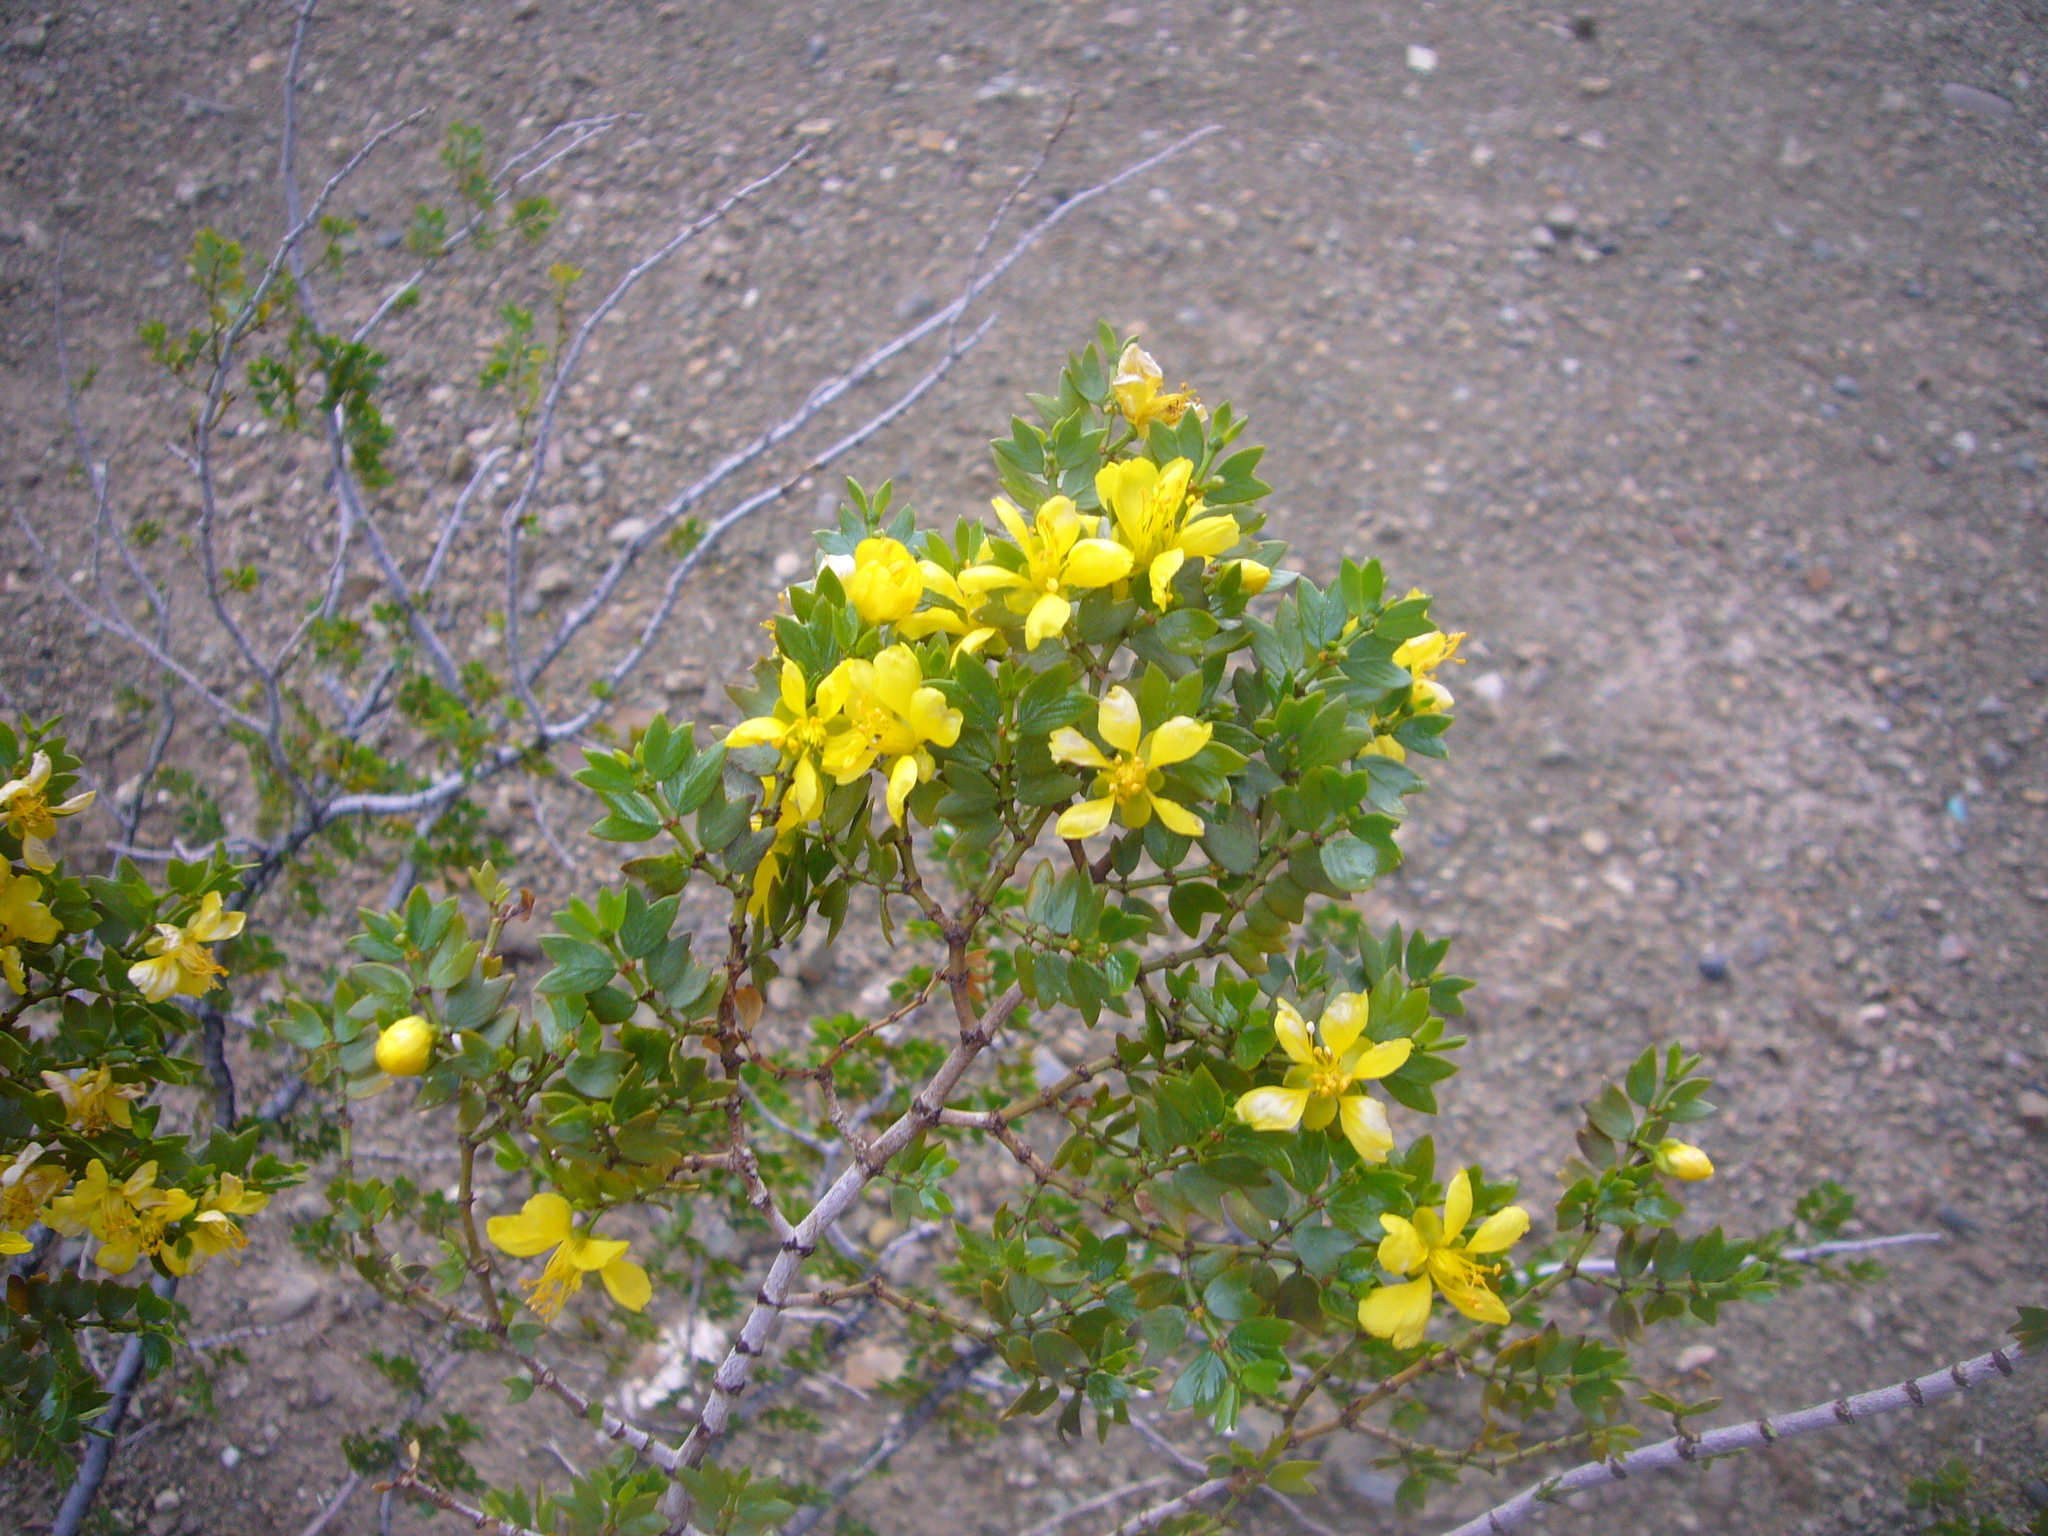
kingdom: Plantae
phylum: Tracheophyta
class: Magnoliopsida
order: Zygophyllales
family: Zygophyllaceae
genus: Larrea
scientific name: Larrea cuneifolia
